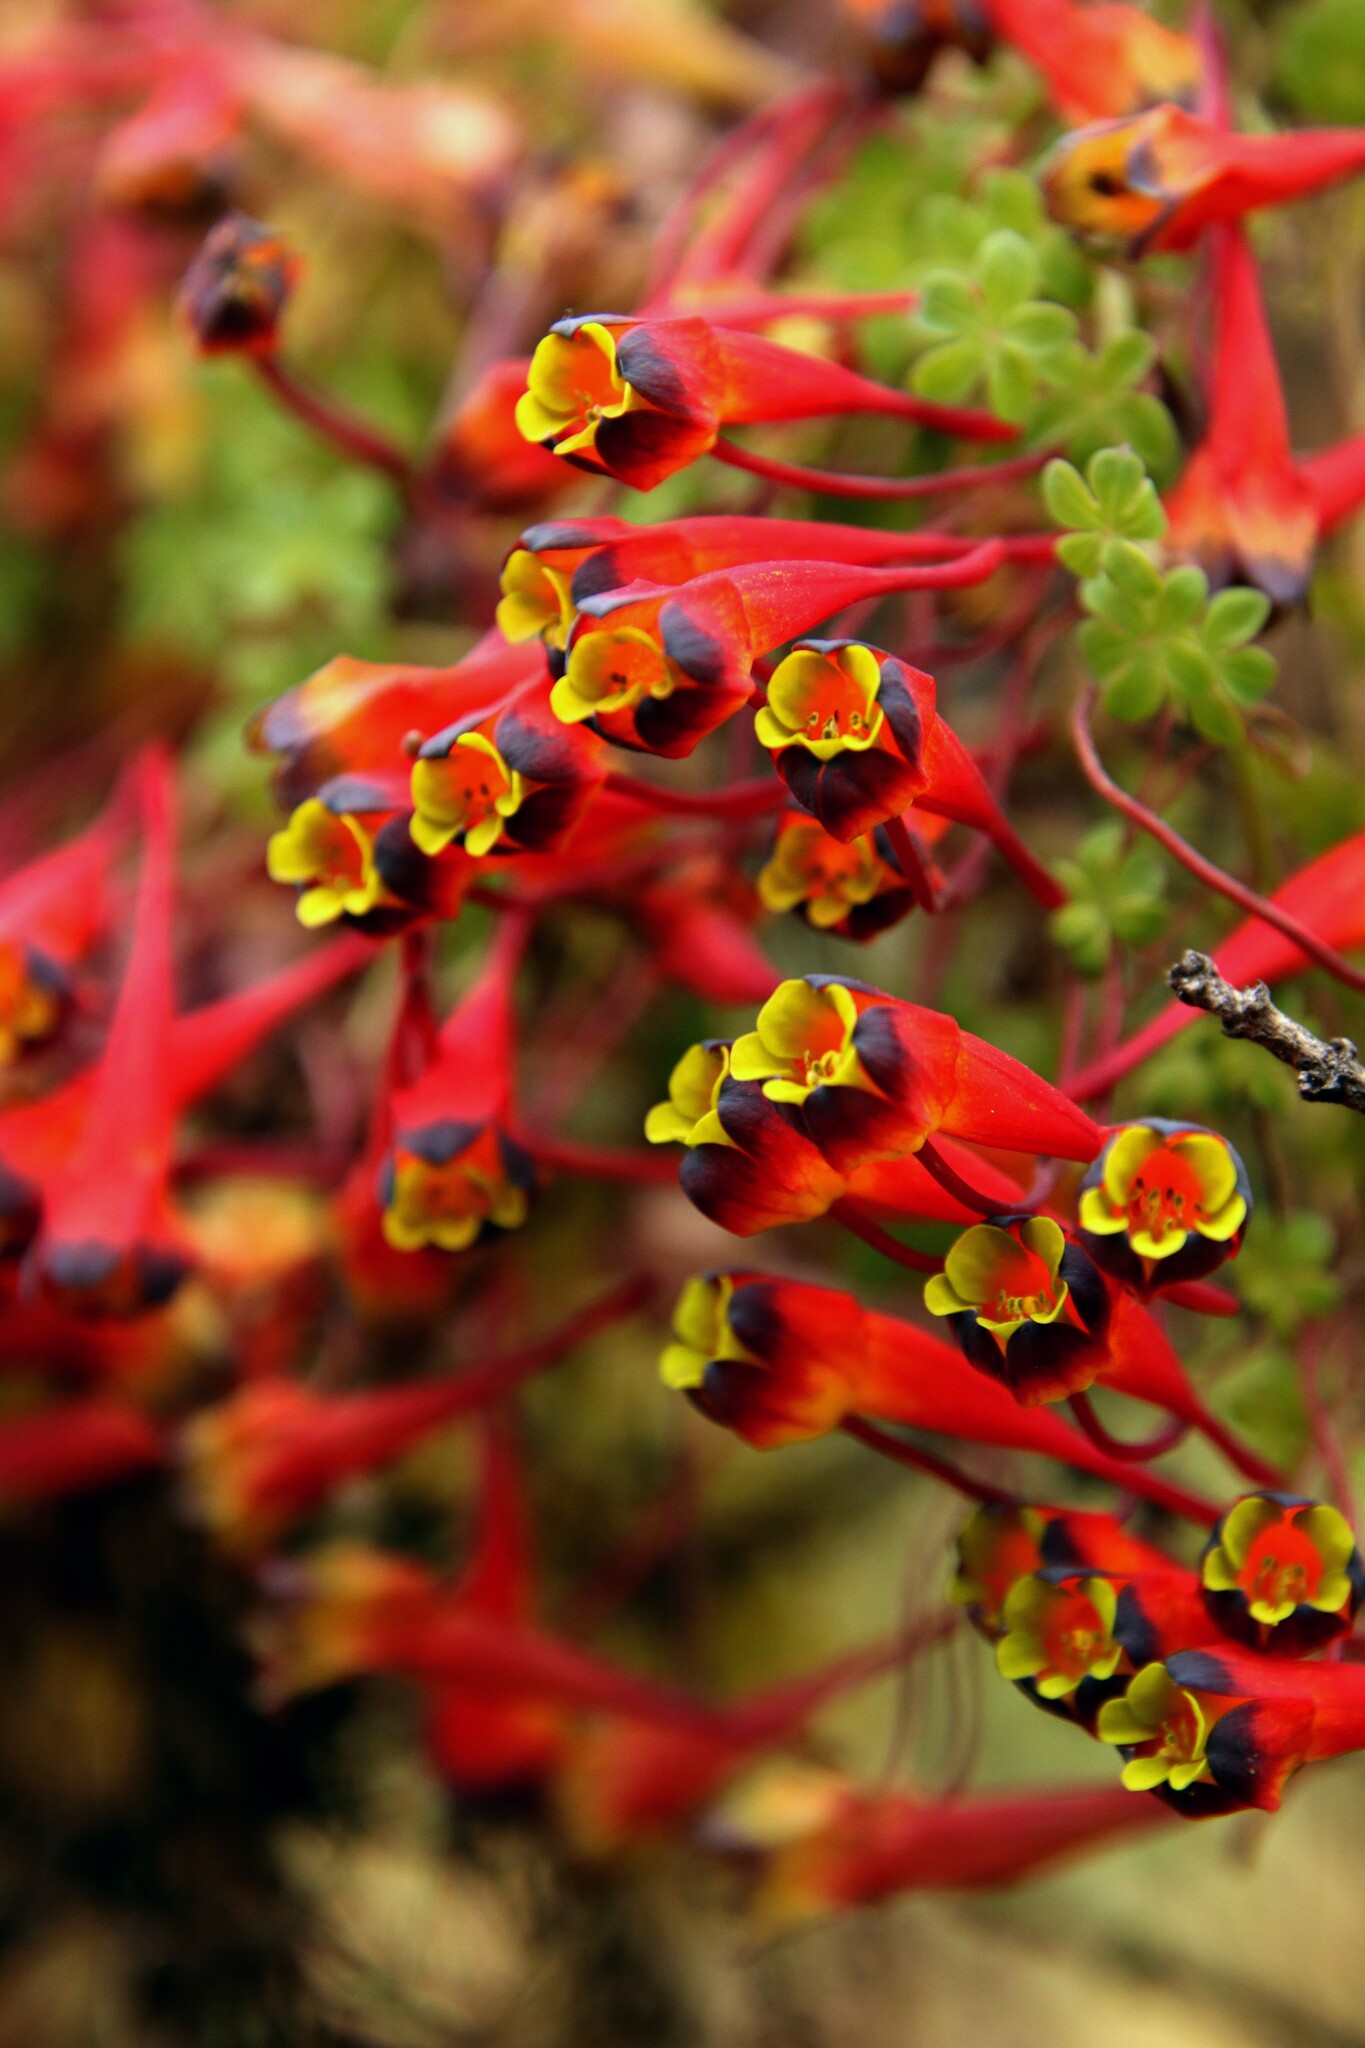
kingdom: Plantae
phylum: Tracheophyta
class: Magnoliopsida
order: Brassicales
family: Tropaeolaceae
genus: Tropaeolum
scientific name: Tropaeolum tricolor
